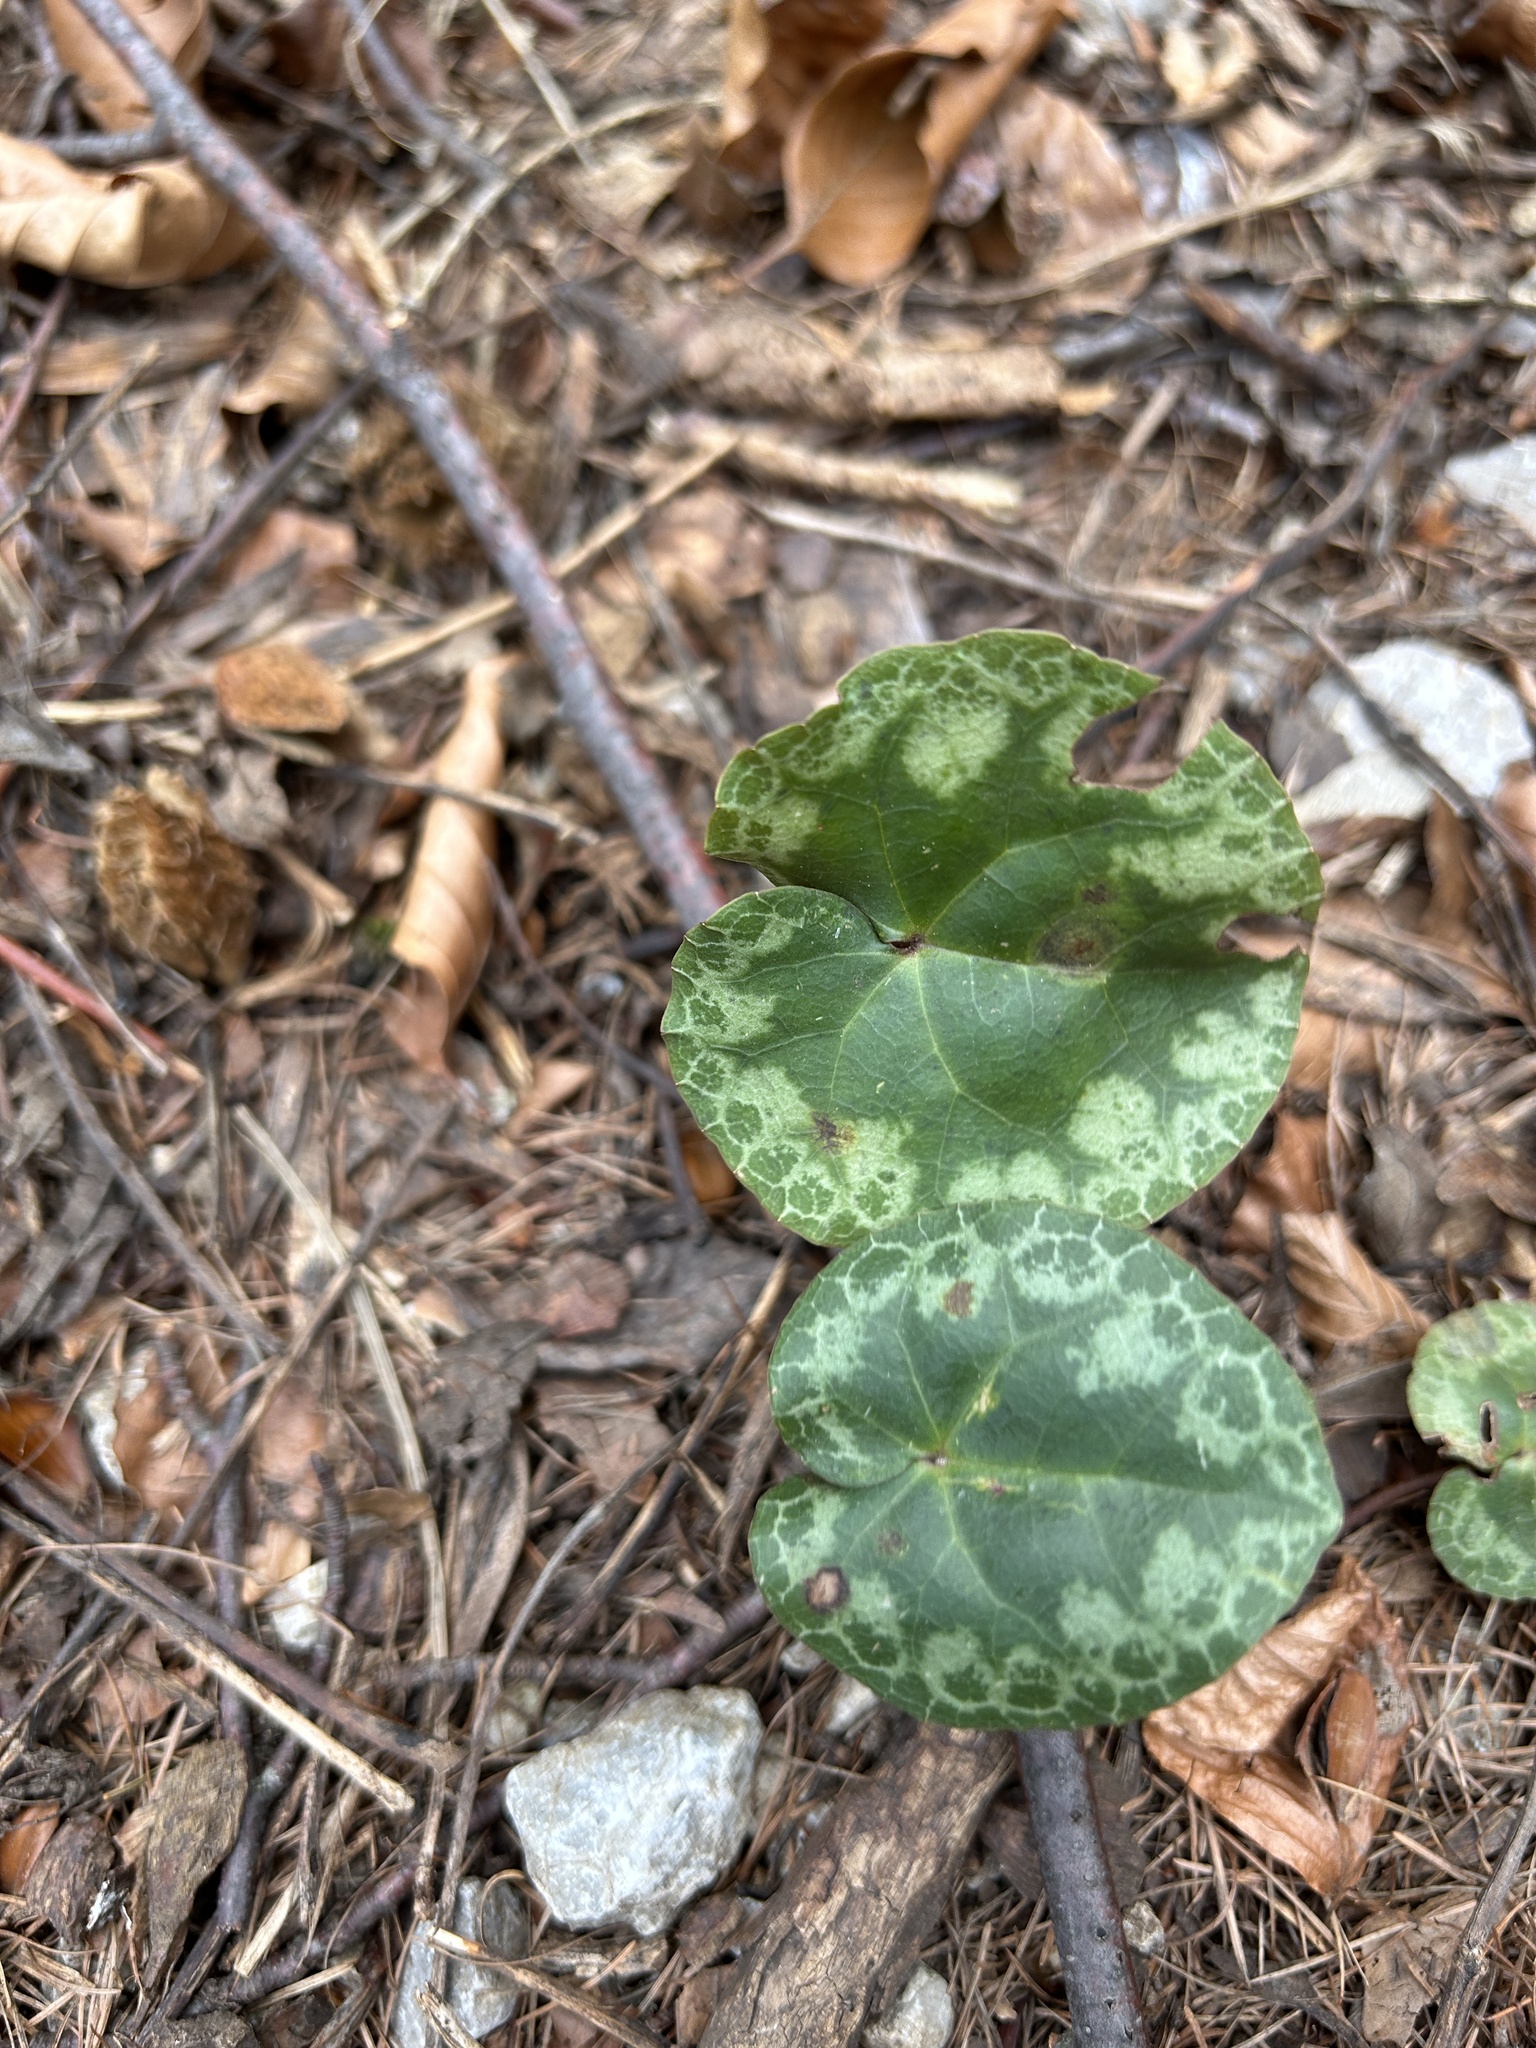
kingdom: Plantae
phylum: Tracheophyta
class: Magnoliopsida
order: Ericales
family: Primulaceae
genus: Cyclamen
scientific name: Cyclamen purpurascens
